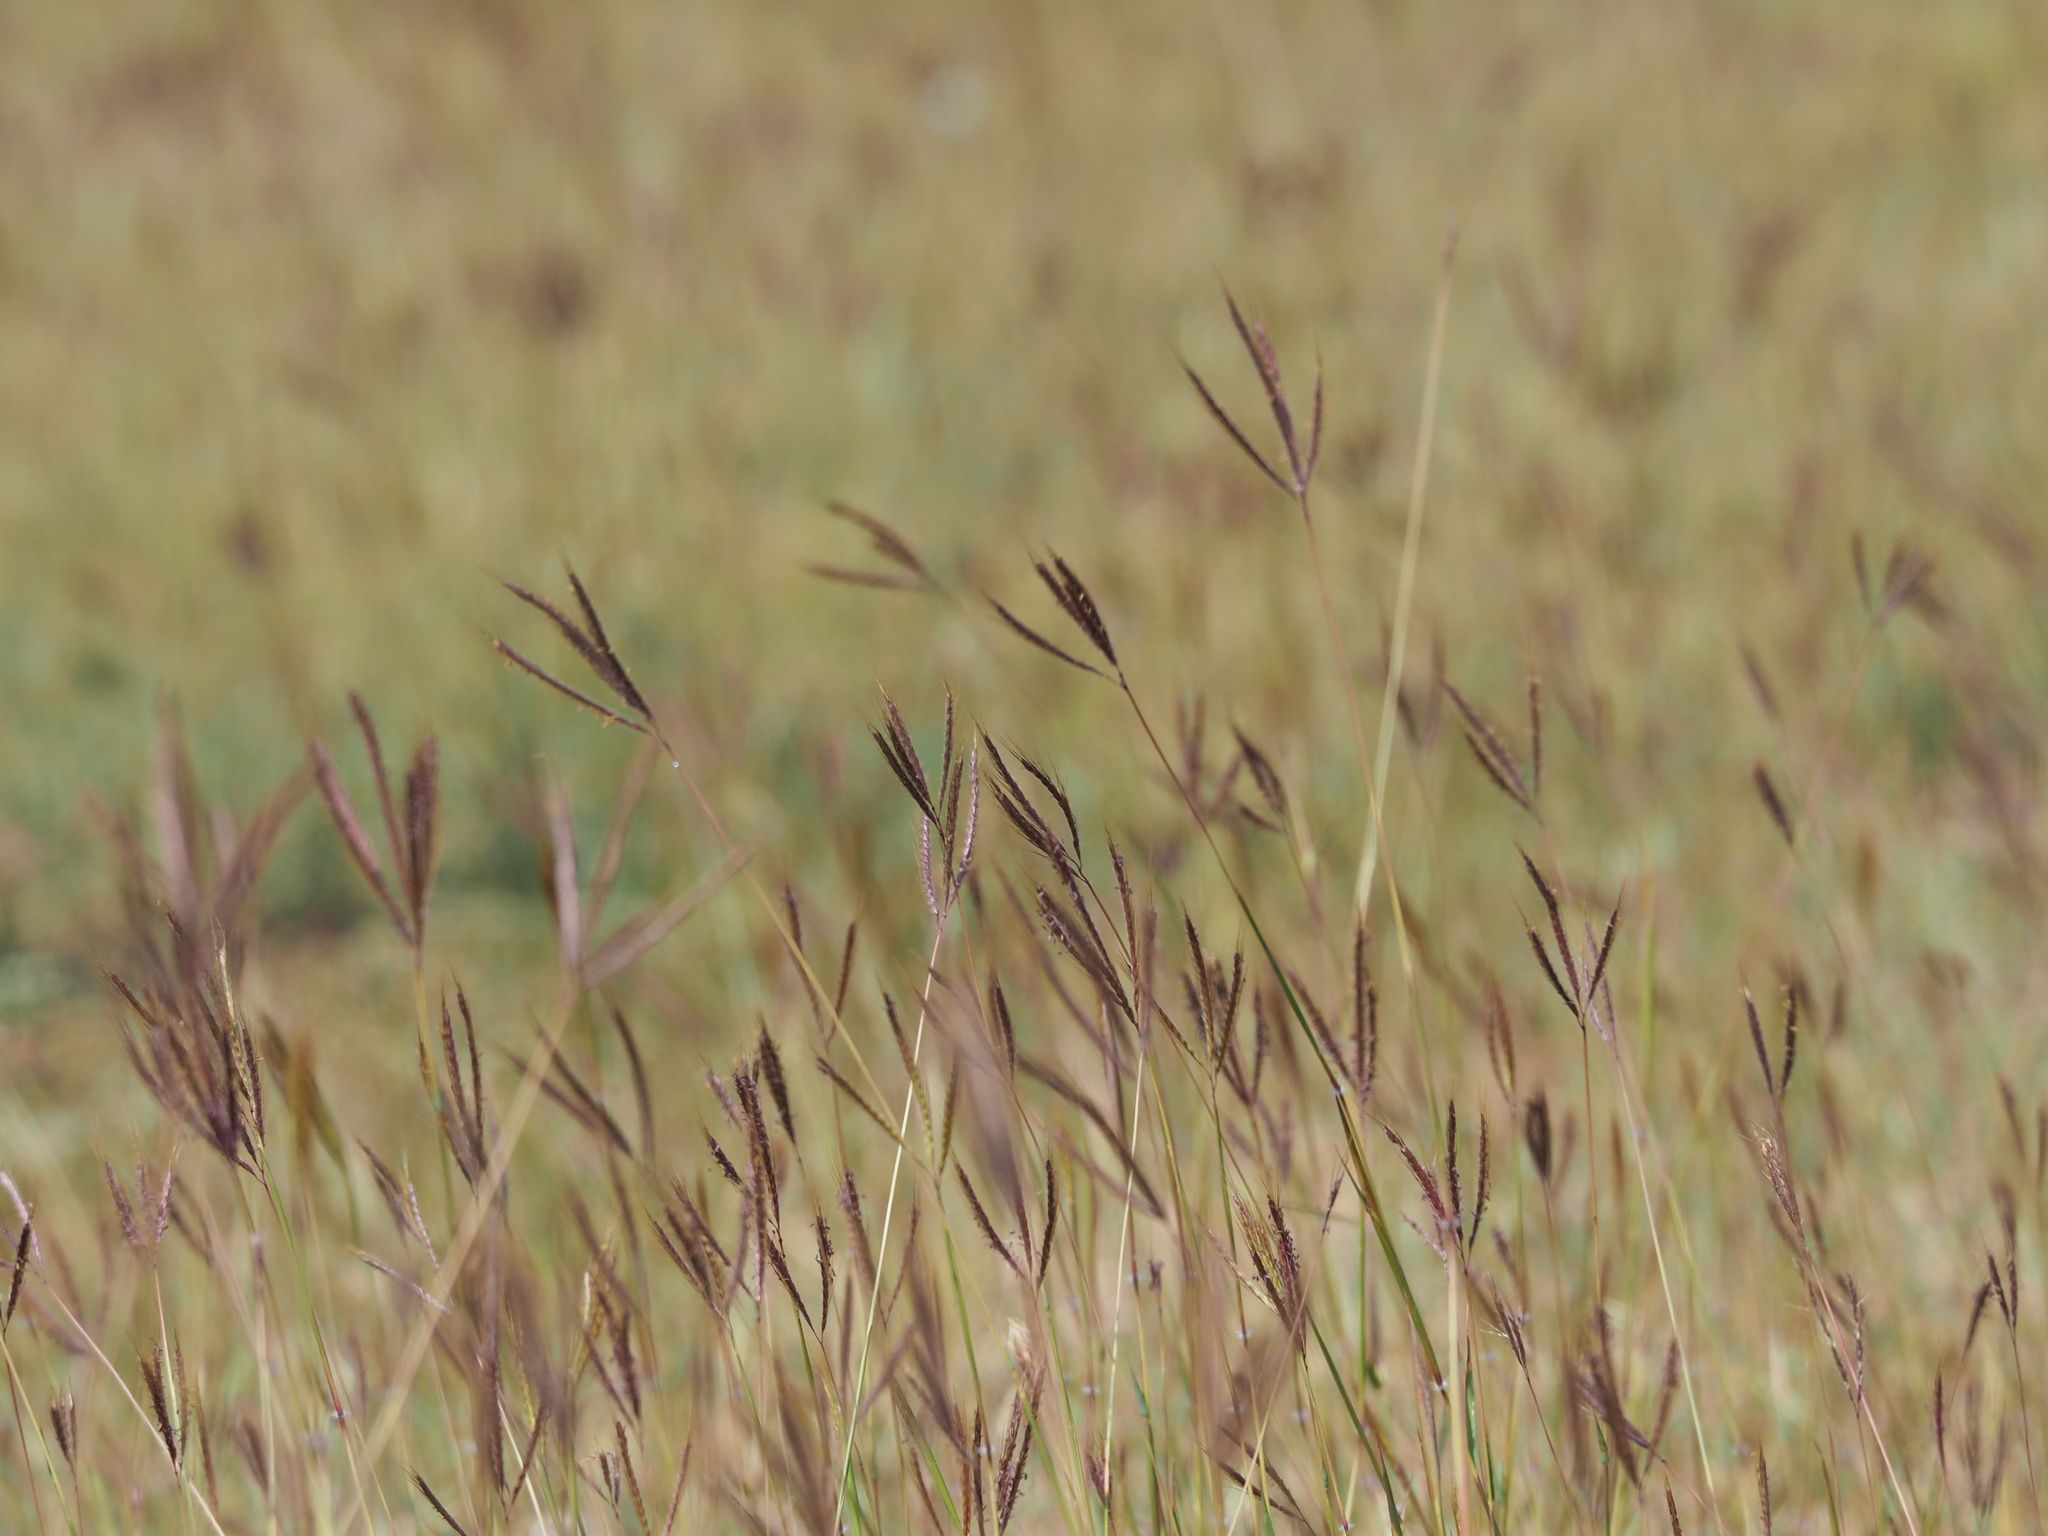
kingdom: Plantae
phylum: Tracheophyta
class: Liliopsida
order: Poales
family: Poaceae
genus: Dichanthium
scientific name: Dichanthium annulatum
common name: Kleberg's bluestem
